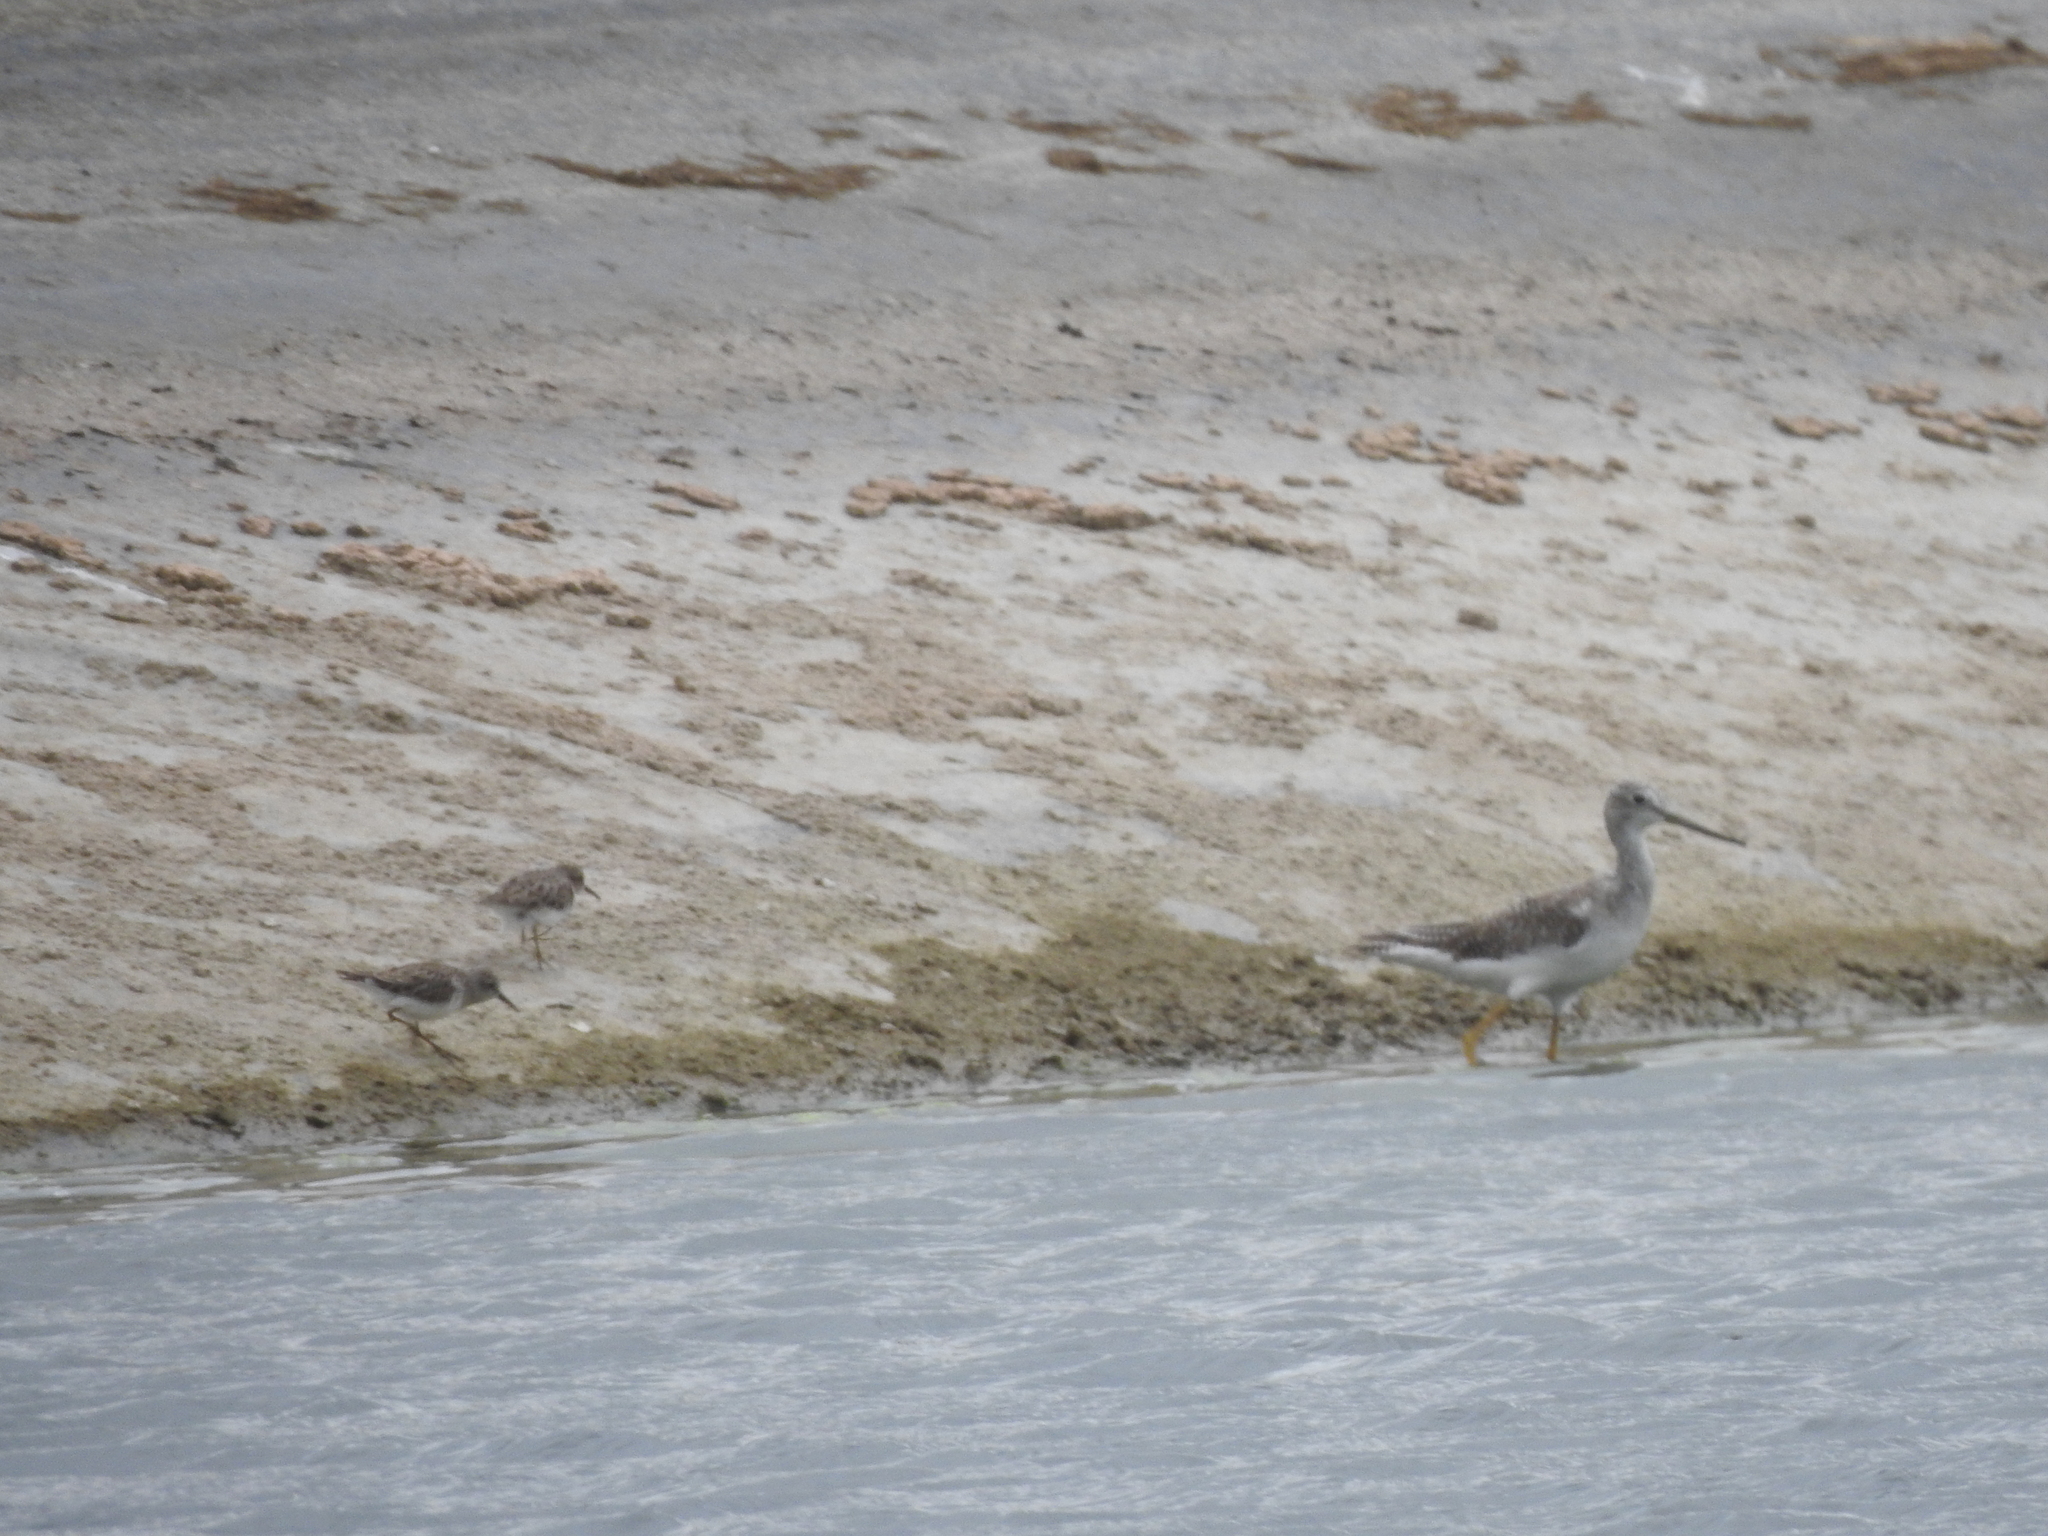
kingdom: Animalia
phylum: Chordata
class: Aves
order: Charadriiformes
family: Scolopacidae
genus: Calidris
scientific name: Calidris minutilla
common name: Least sandpiper
